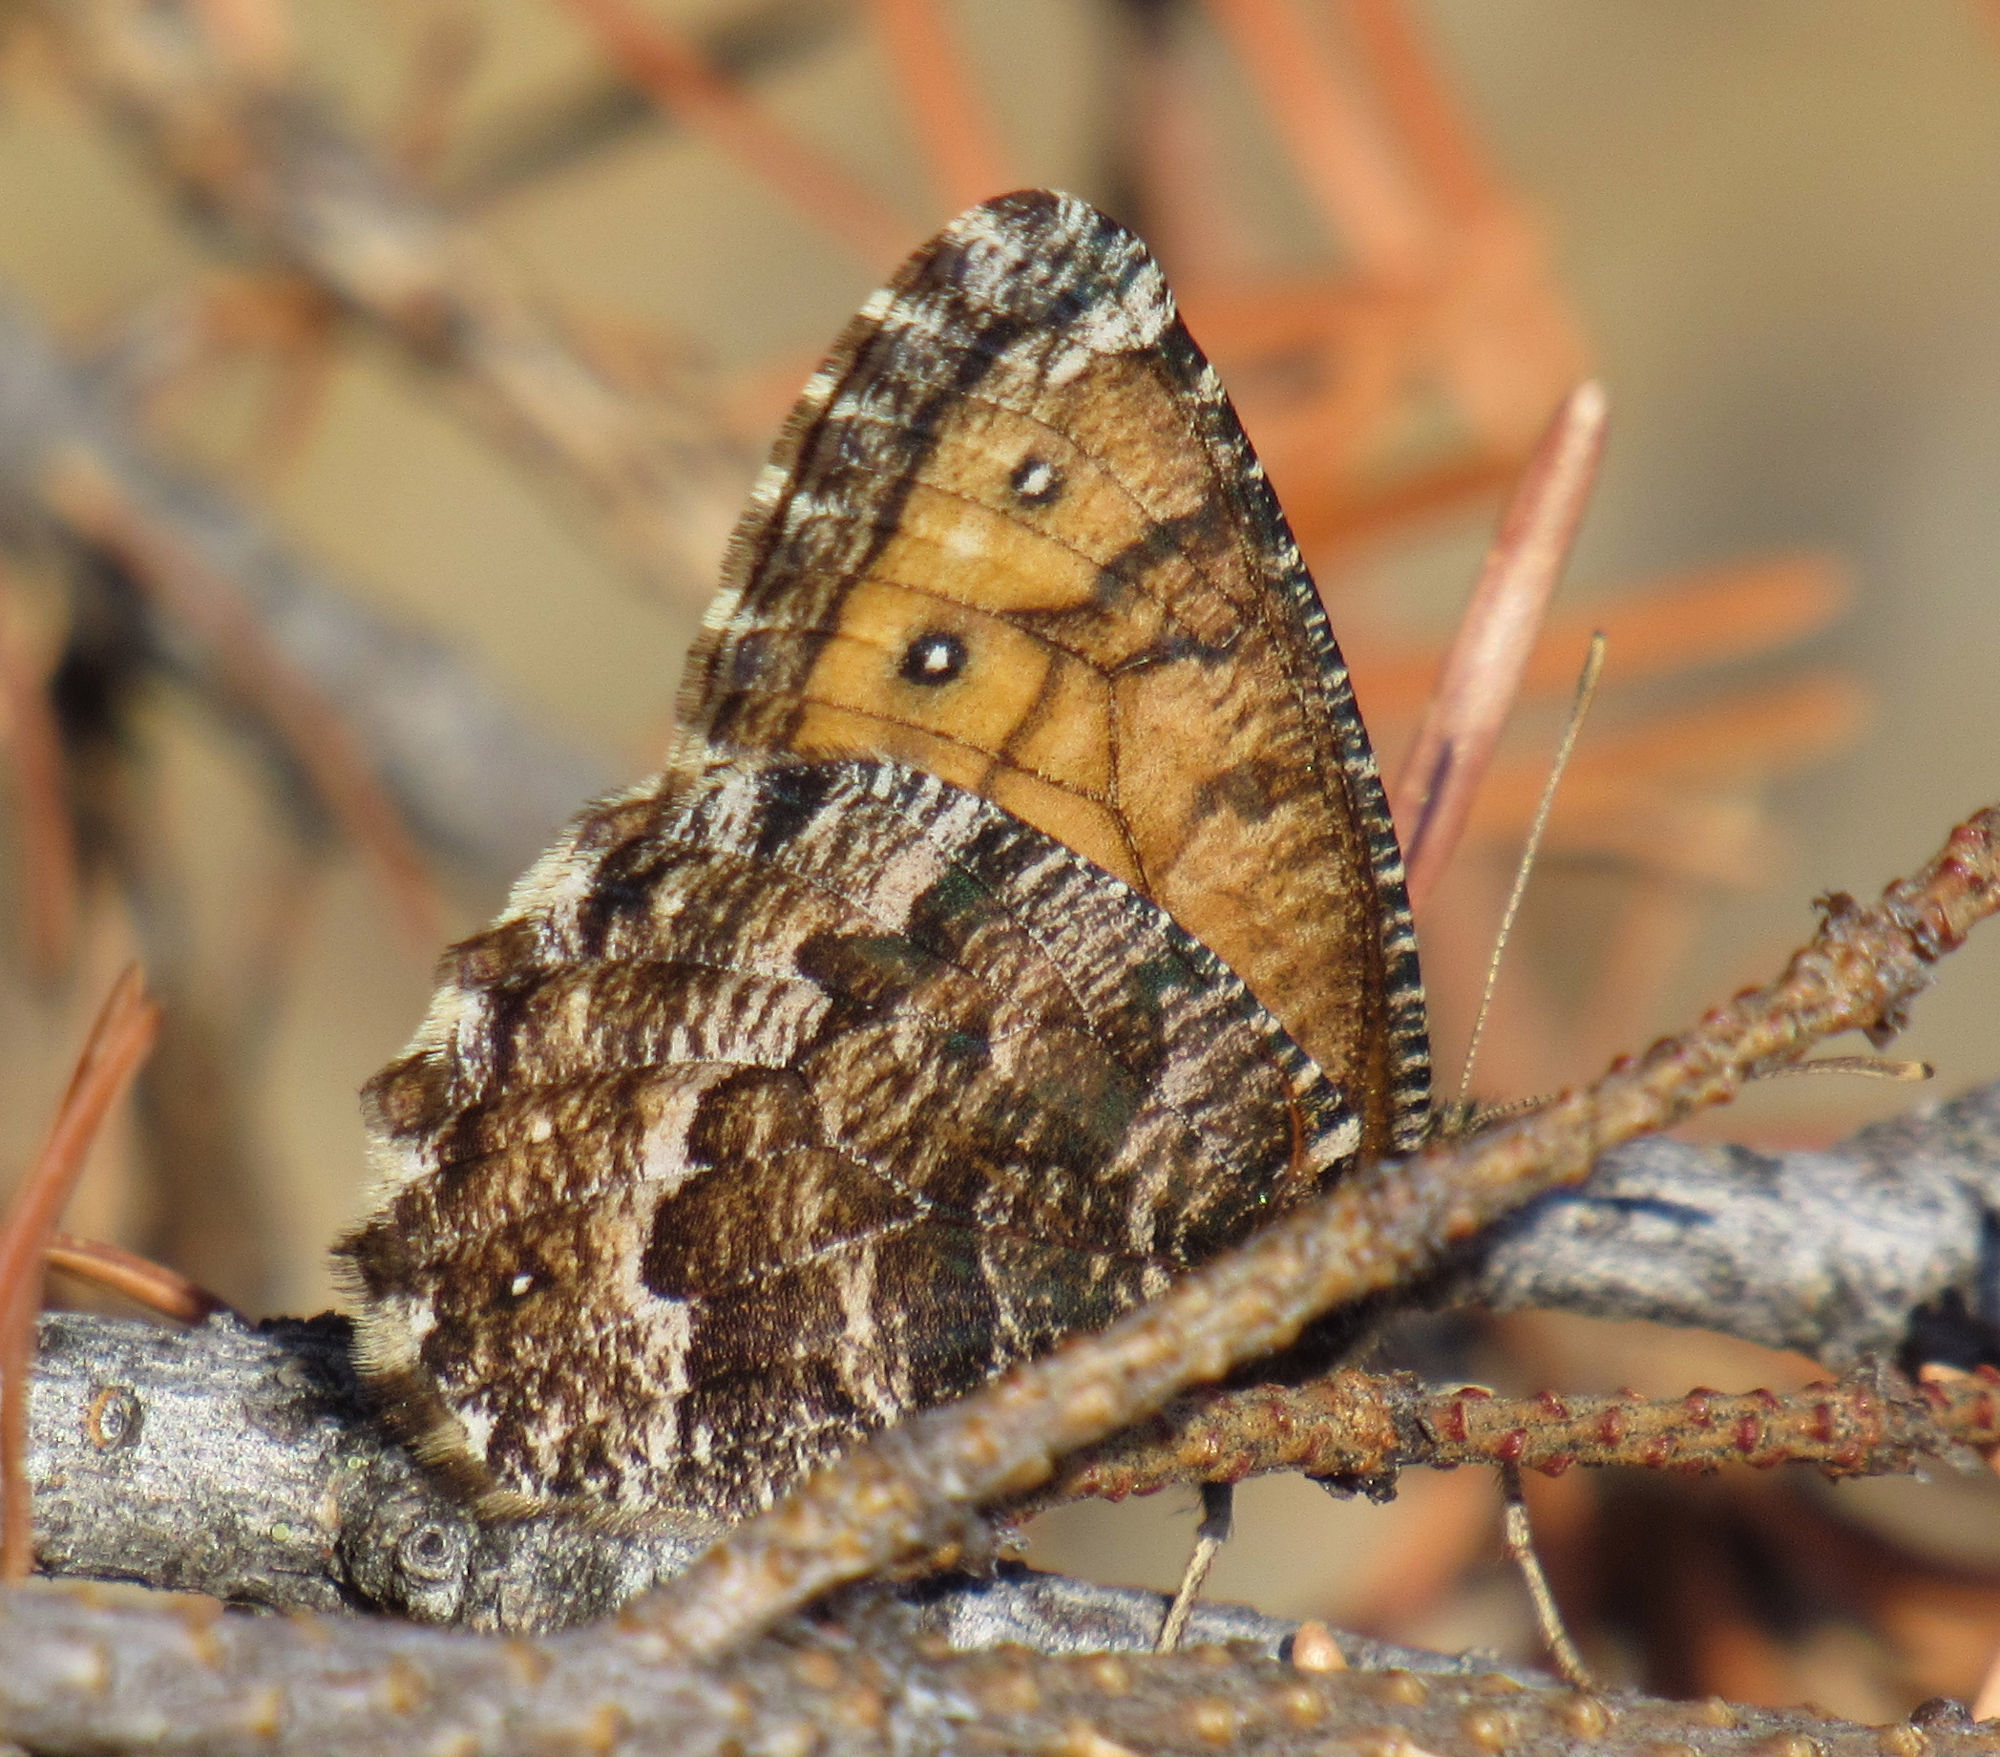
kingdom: Animalia
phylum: Arthropoda
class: Insecta
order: Lepidoptera
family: Nymphalidae
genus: Oeneis
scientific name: Oeneis chryxus
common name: Chryxus arctic
